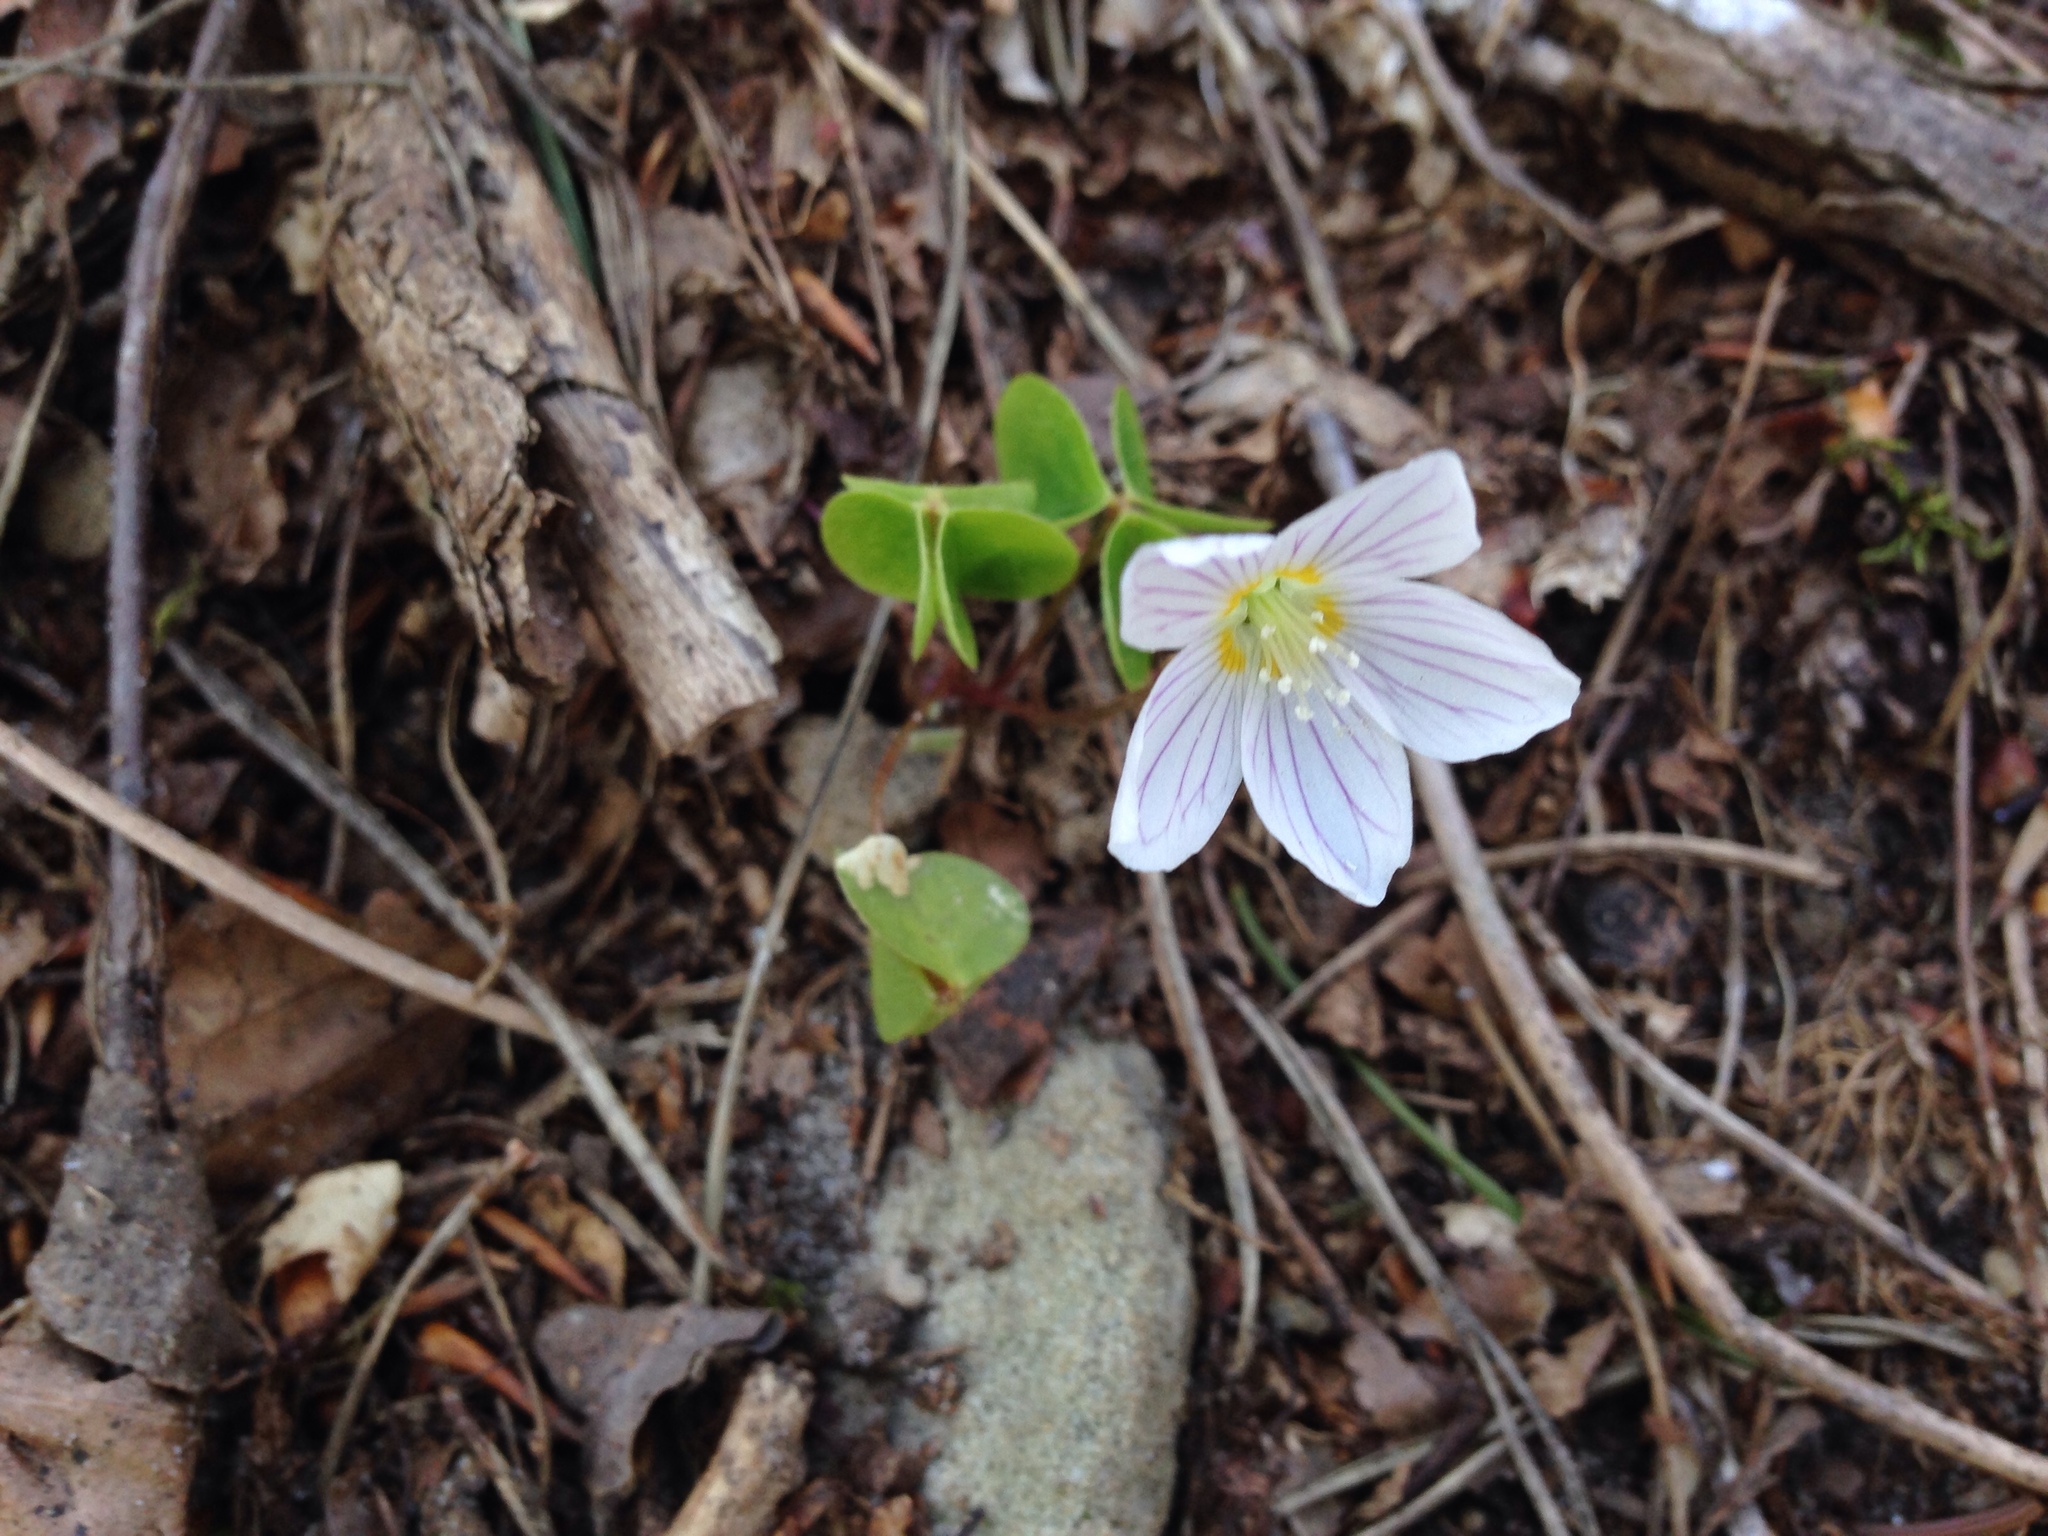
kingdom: Plantae
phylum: Tracheophyta
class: Magnoliopsida
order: Oxalidales
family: Oxalidaceae
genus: Oxalis
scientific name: Oxalis acetosella
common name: Wood-sorrel
